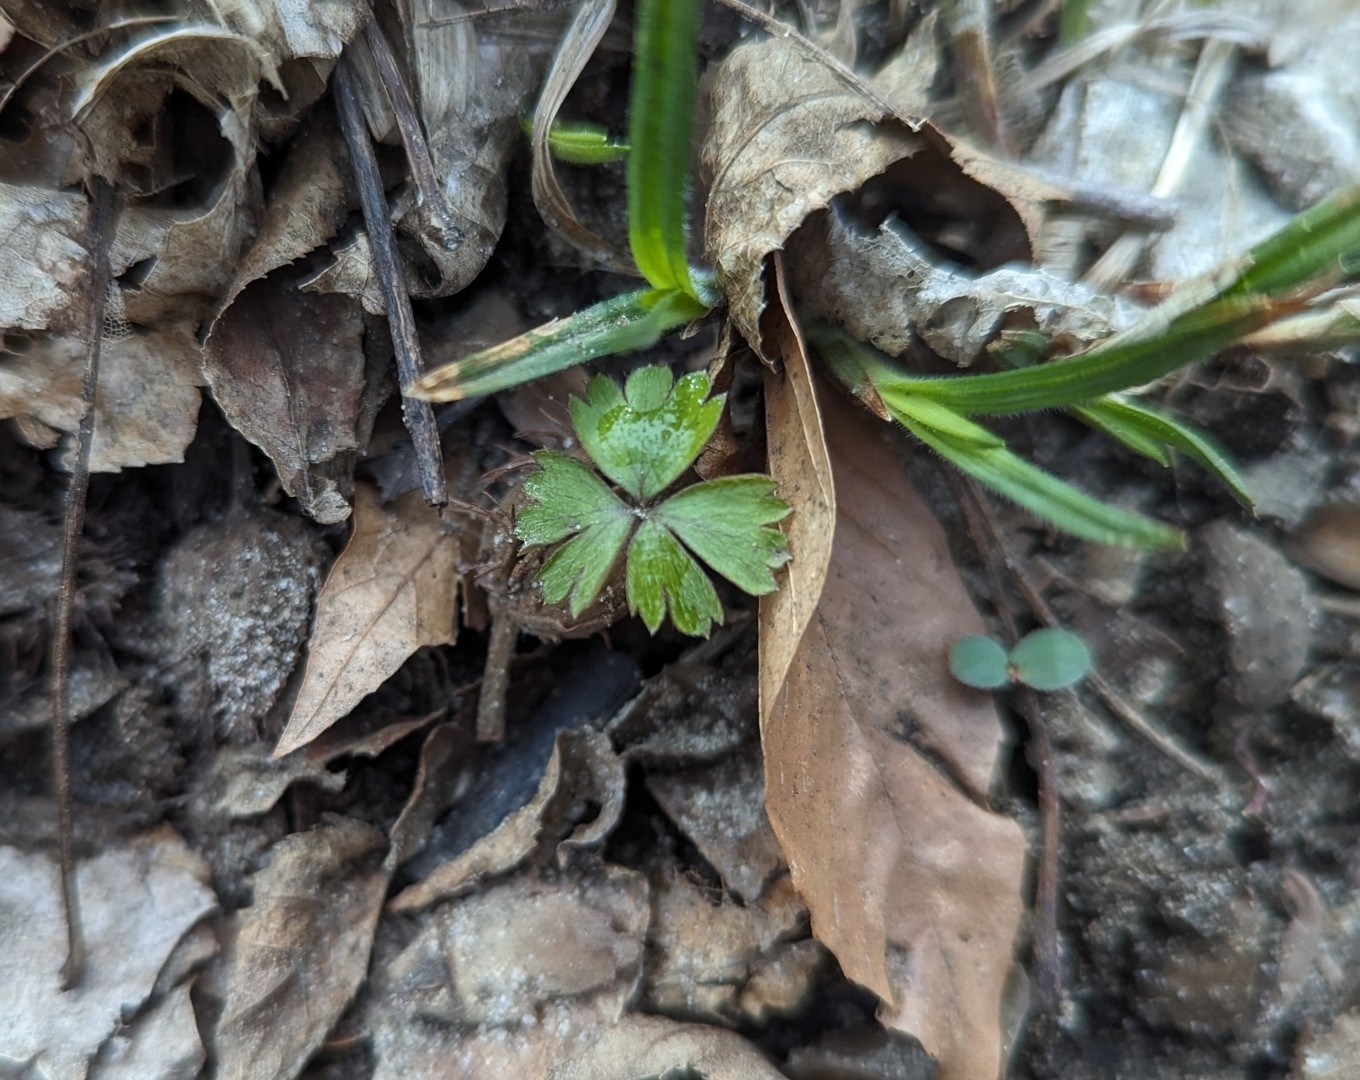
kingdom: Plantae
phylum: Tracheophyta
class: Magnoliopsida
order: Ranunculales
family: Ranunculaceae
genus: Anemone
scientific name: Anemone quinquefolia
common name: Wood anemone
